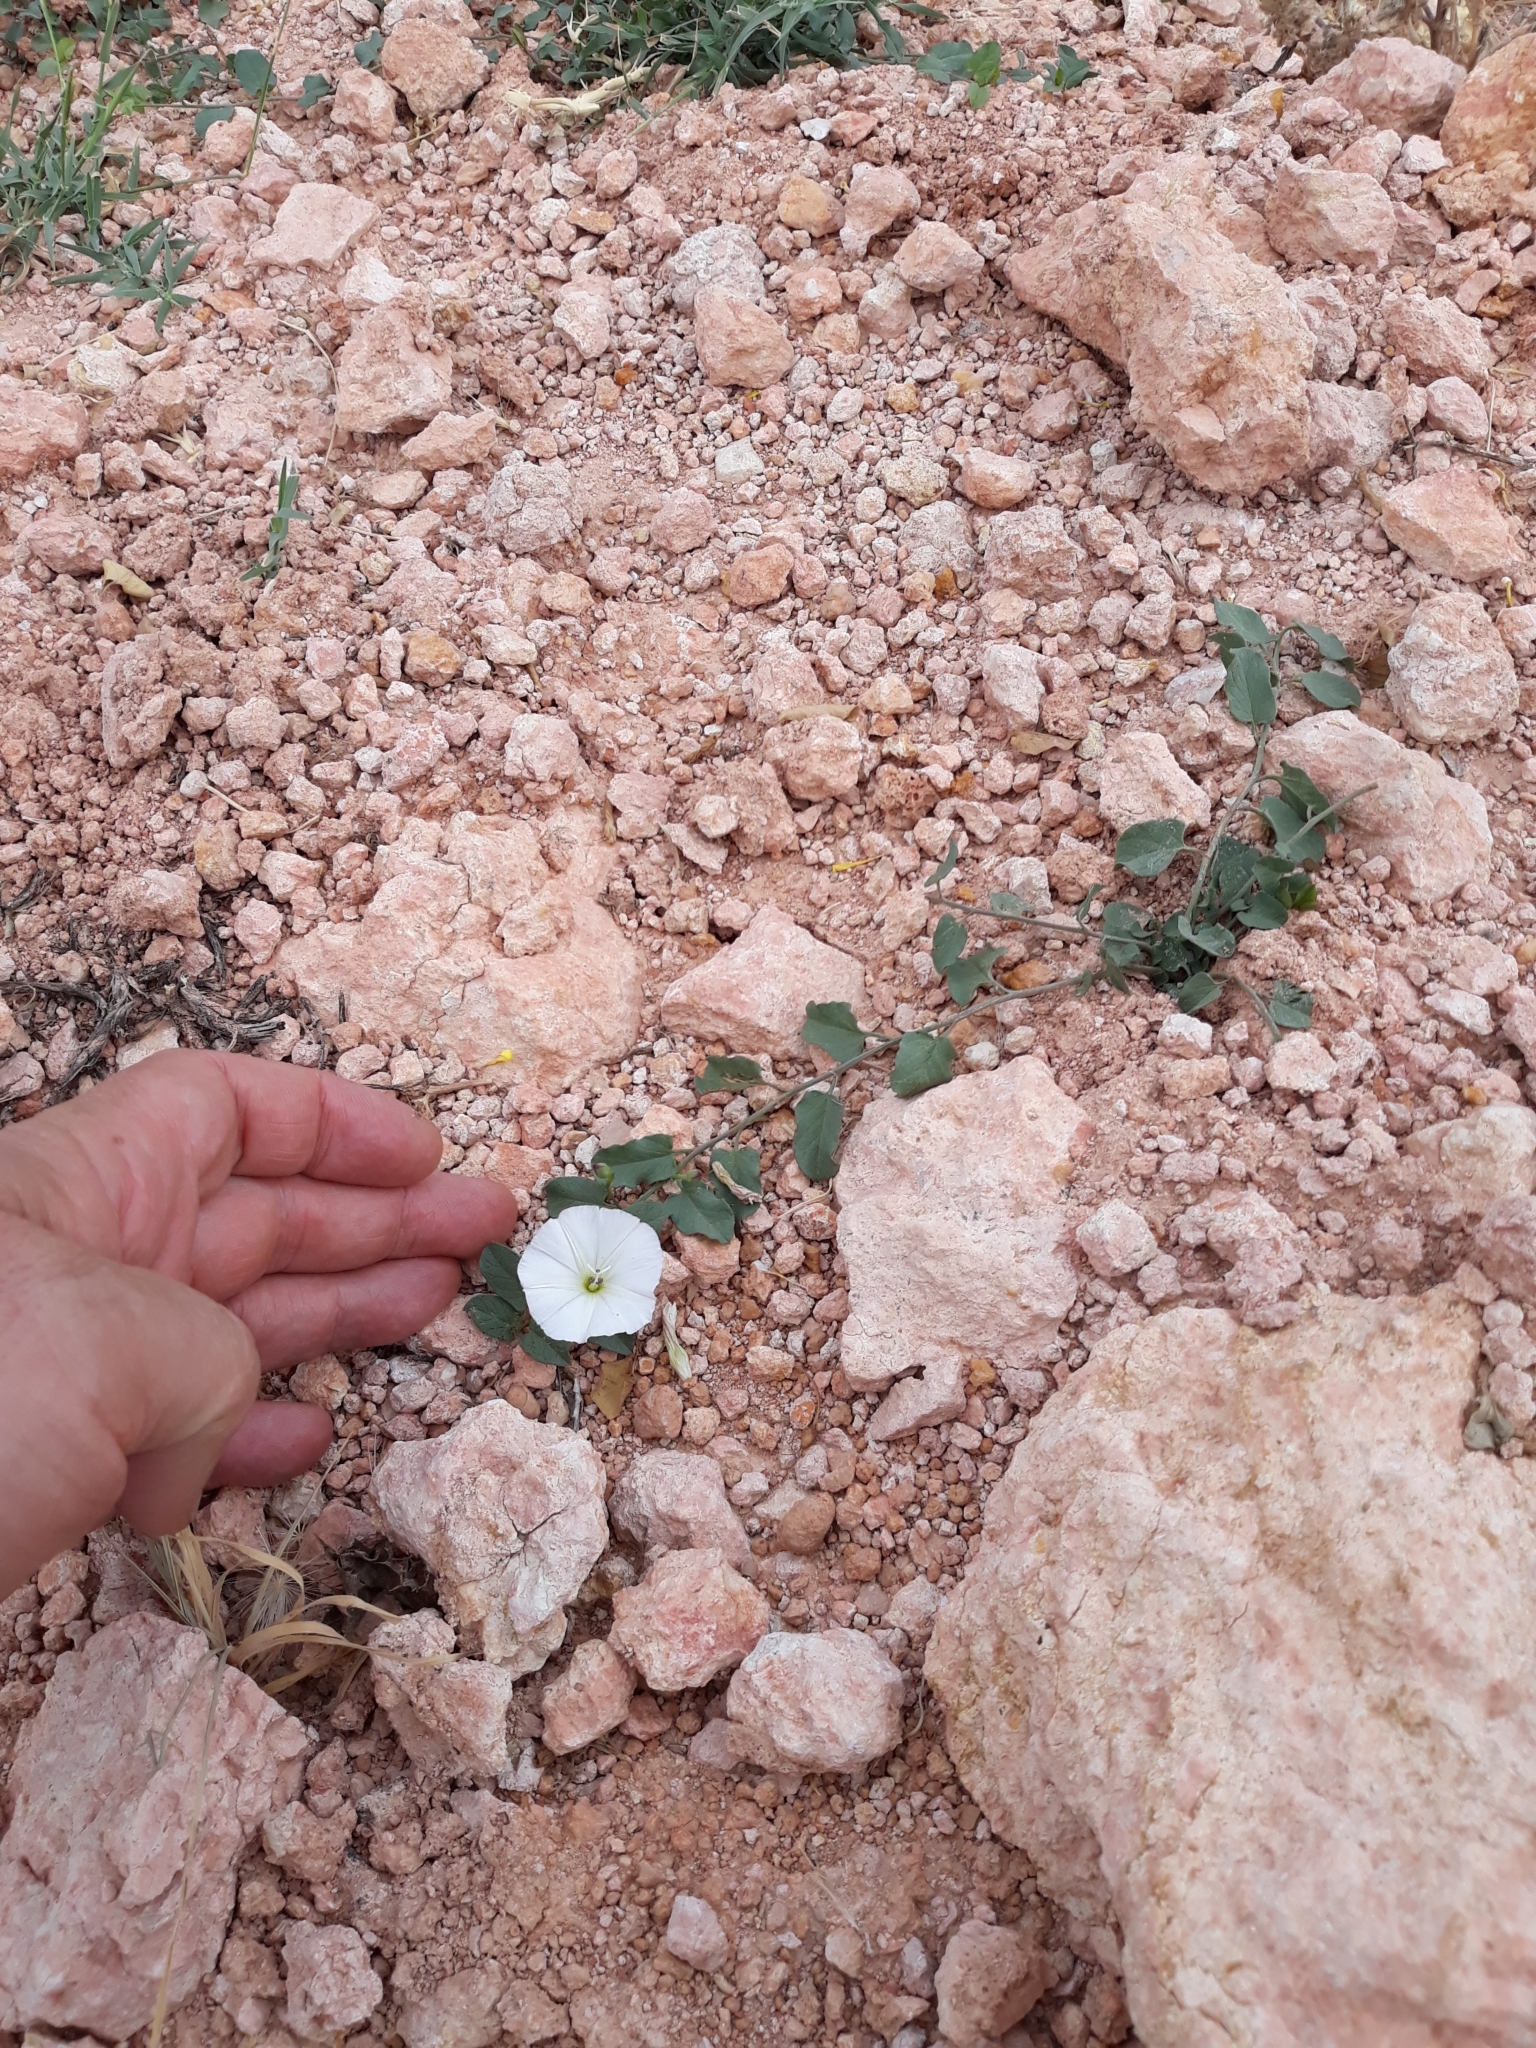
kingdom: Plantae
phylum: Tracheophyta
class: Magnoliopsida
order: Solanales
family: Convolvulaceae
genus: Convolvulus
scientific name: Convolvulus arvensis
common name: Field bindweed
